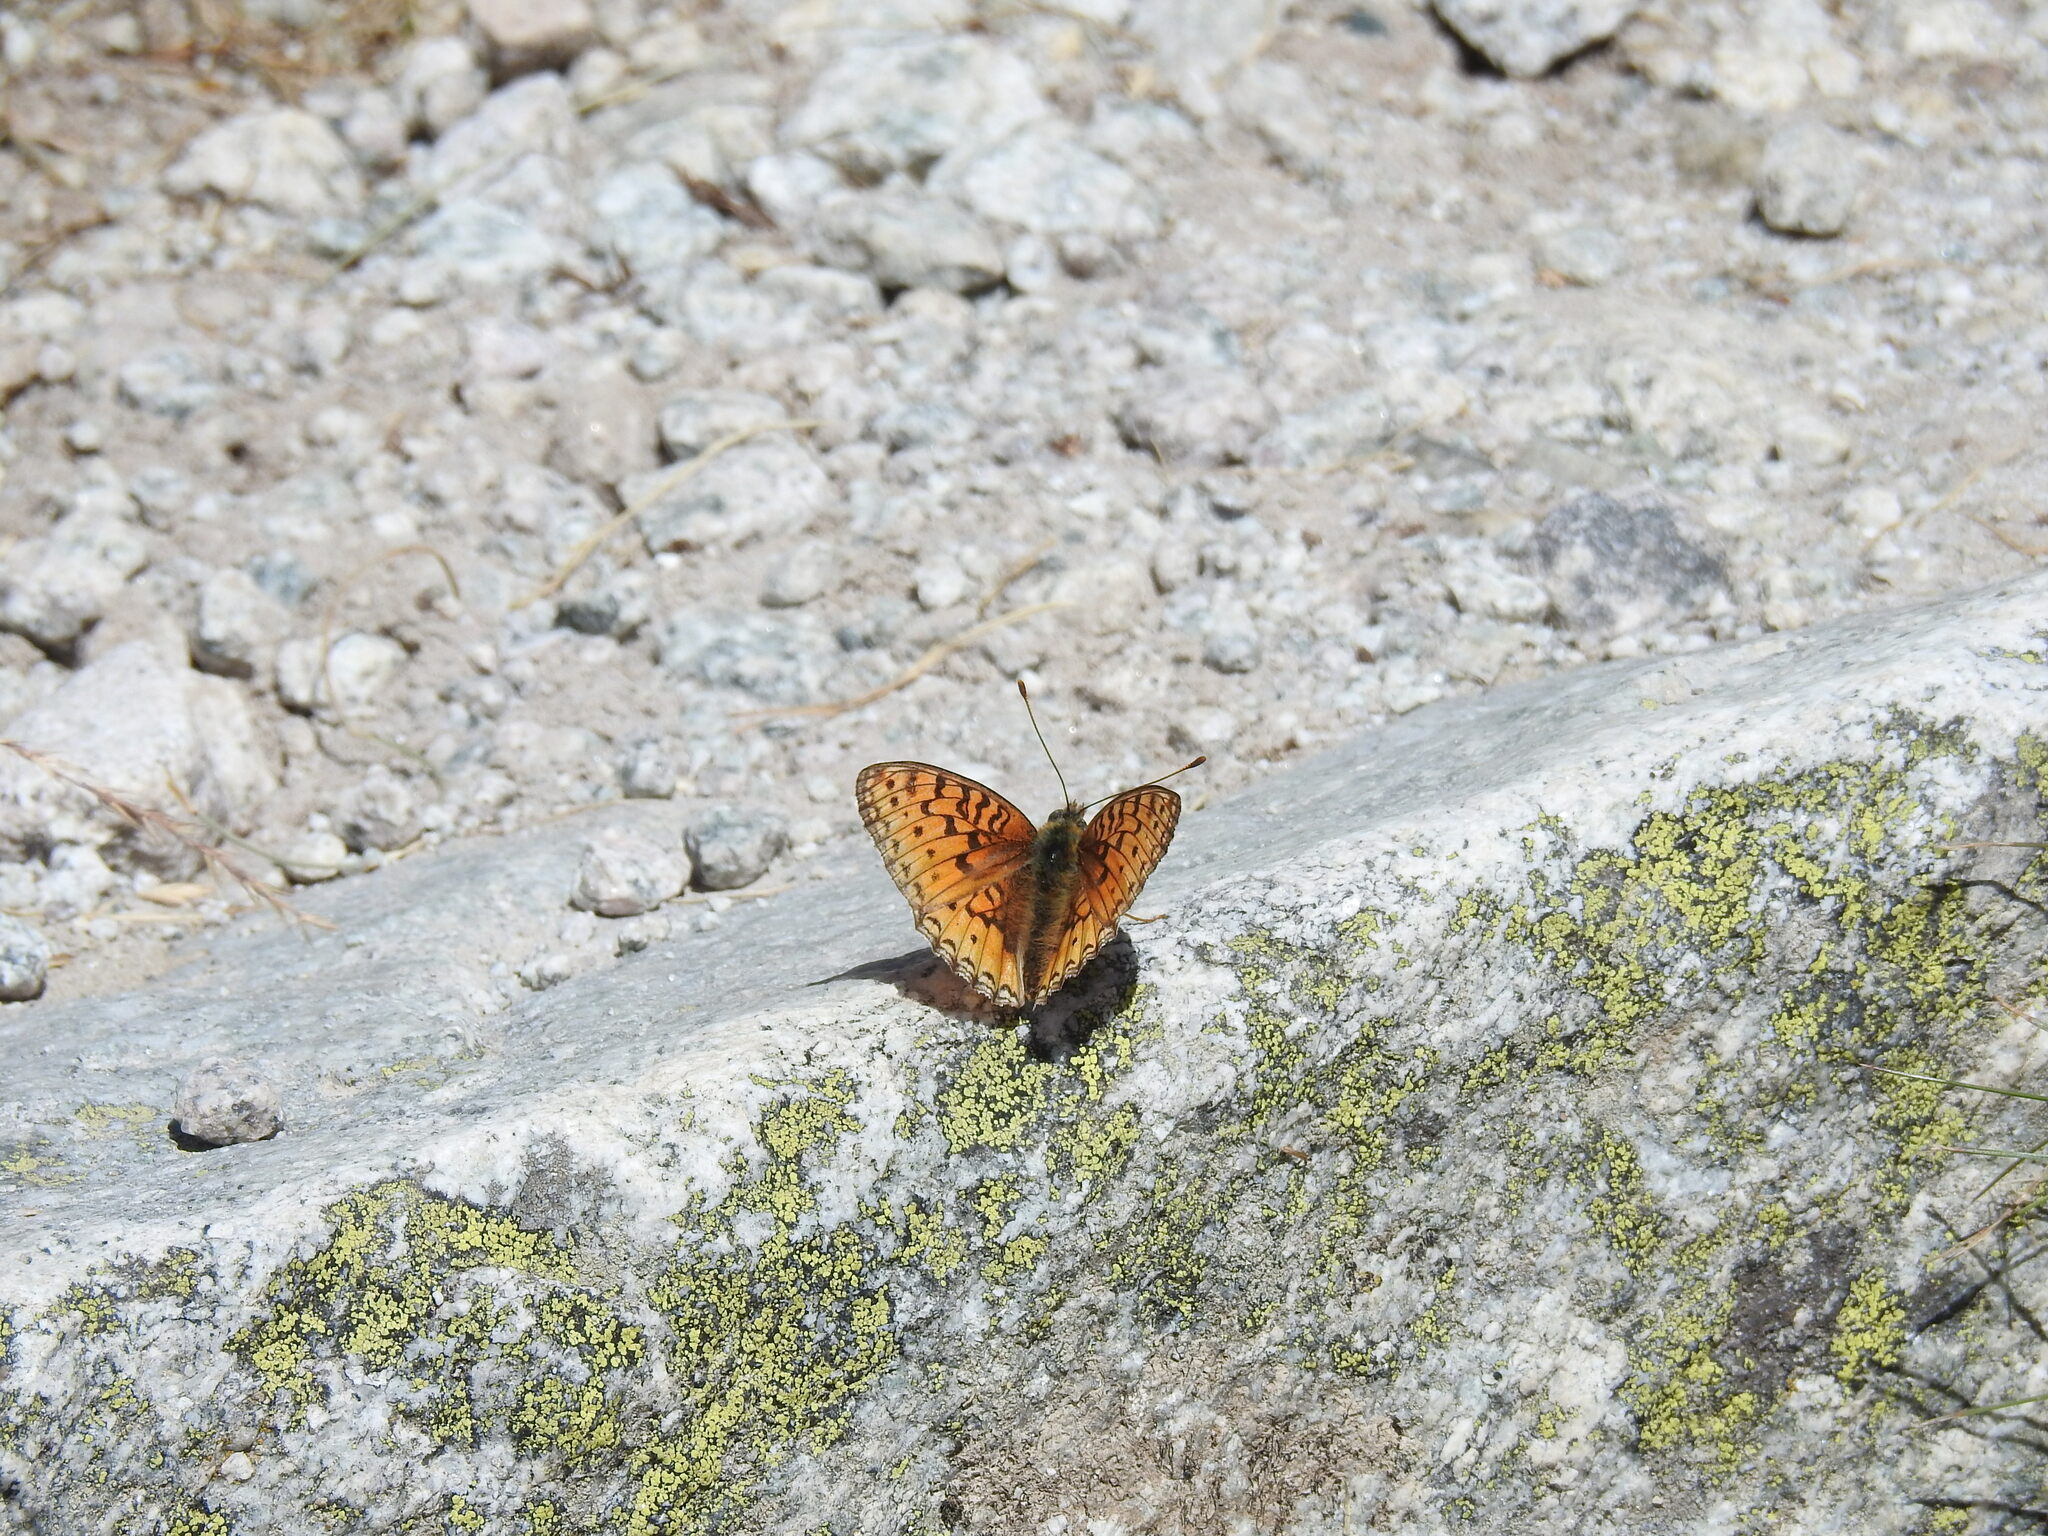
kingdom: Animalia
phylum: Arthropoda
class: Insecta
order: Lepidoptera
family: Nymphalidae
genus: Fabriciana
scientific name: Fabriciana niobe
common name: Niobe fritillary
